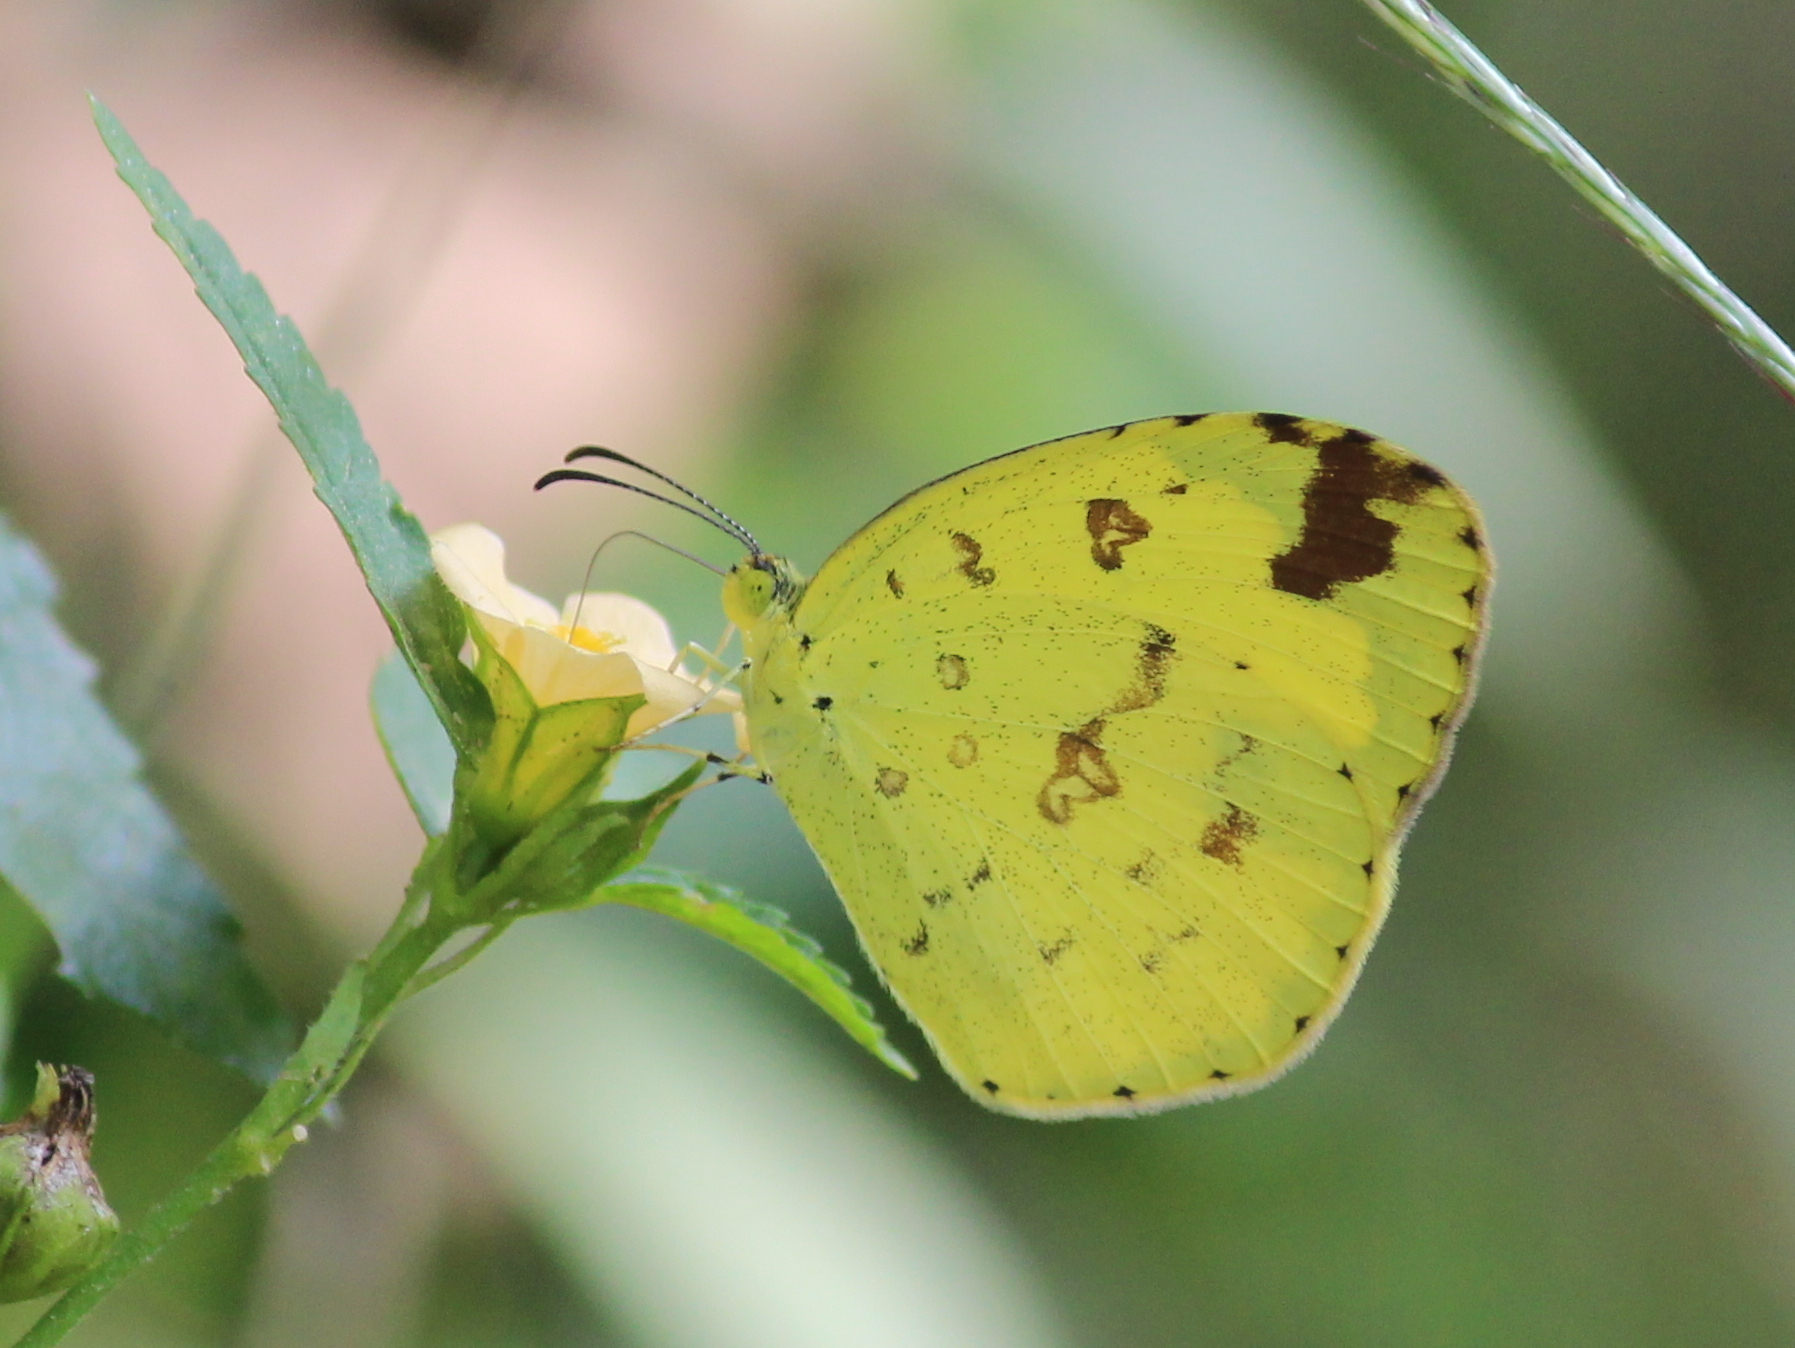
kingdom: Animalia
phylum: Arthropoda
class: Insecta
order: Lepidoptera
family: Pieridae
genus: Eurema
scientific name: Eurema hecabe
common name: Pale grass yellow
